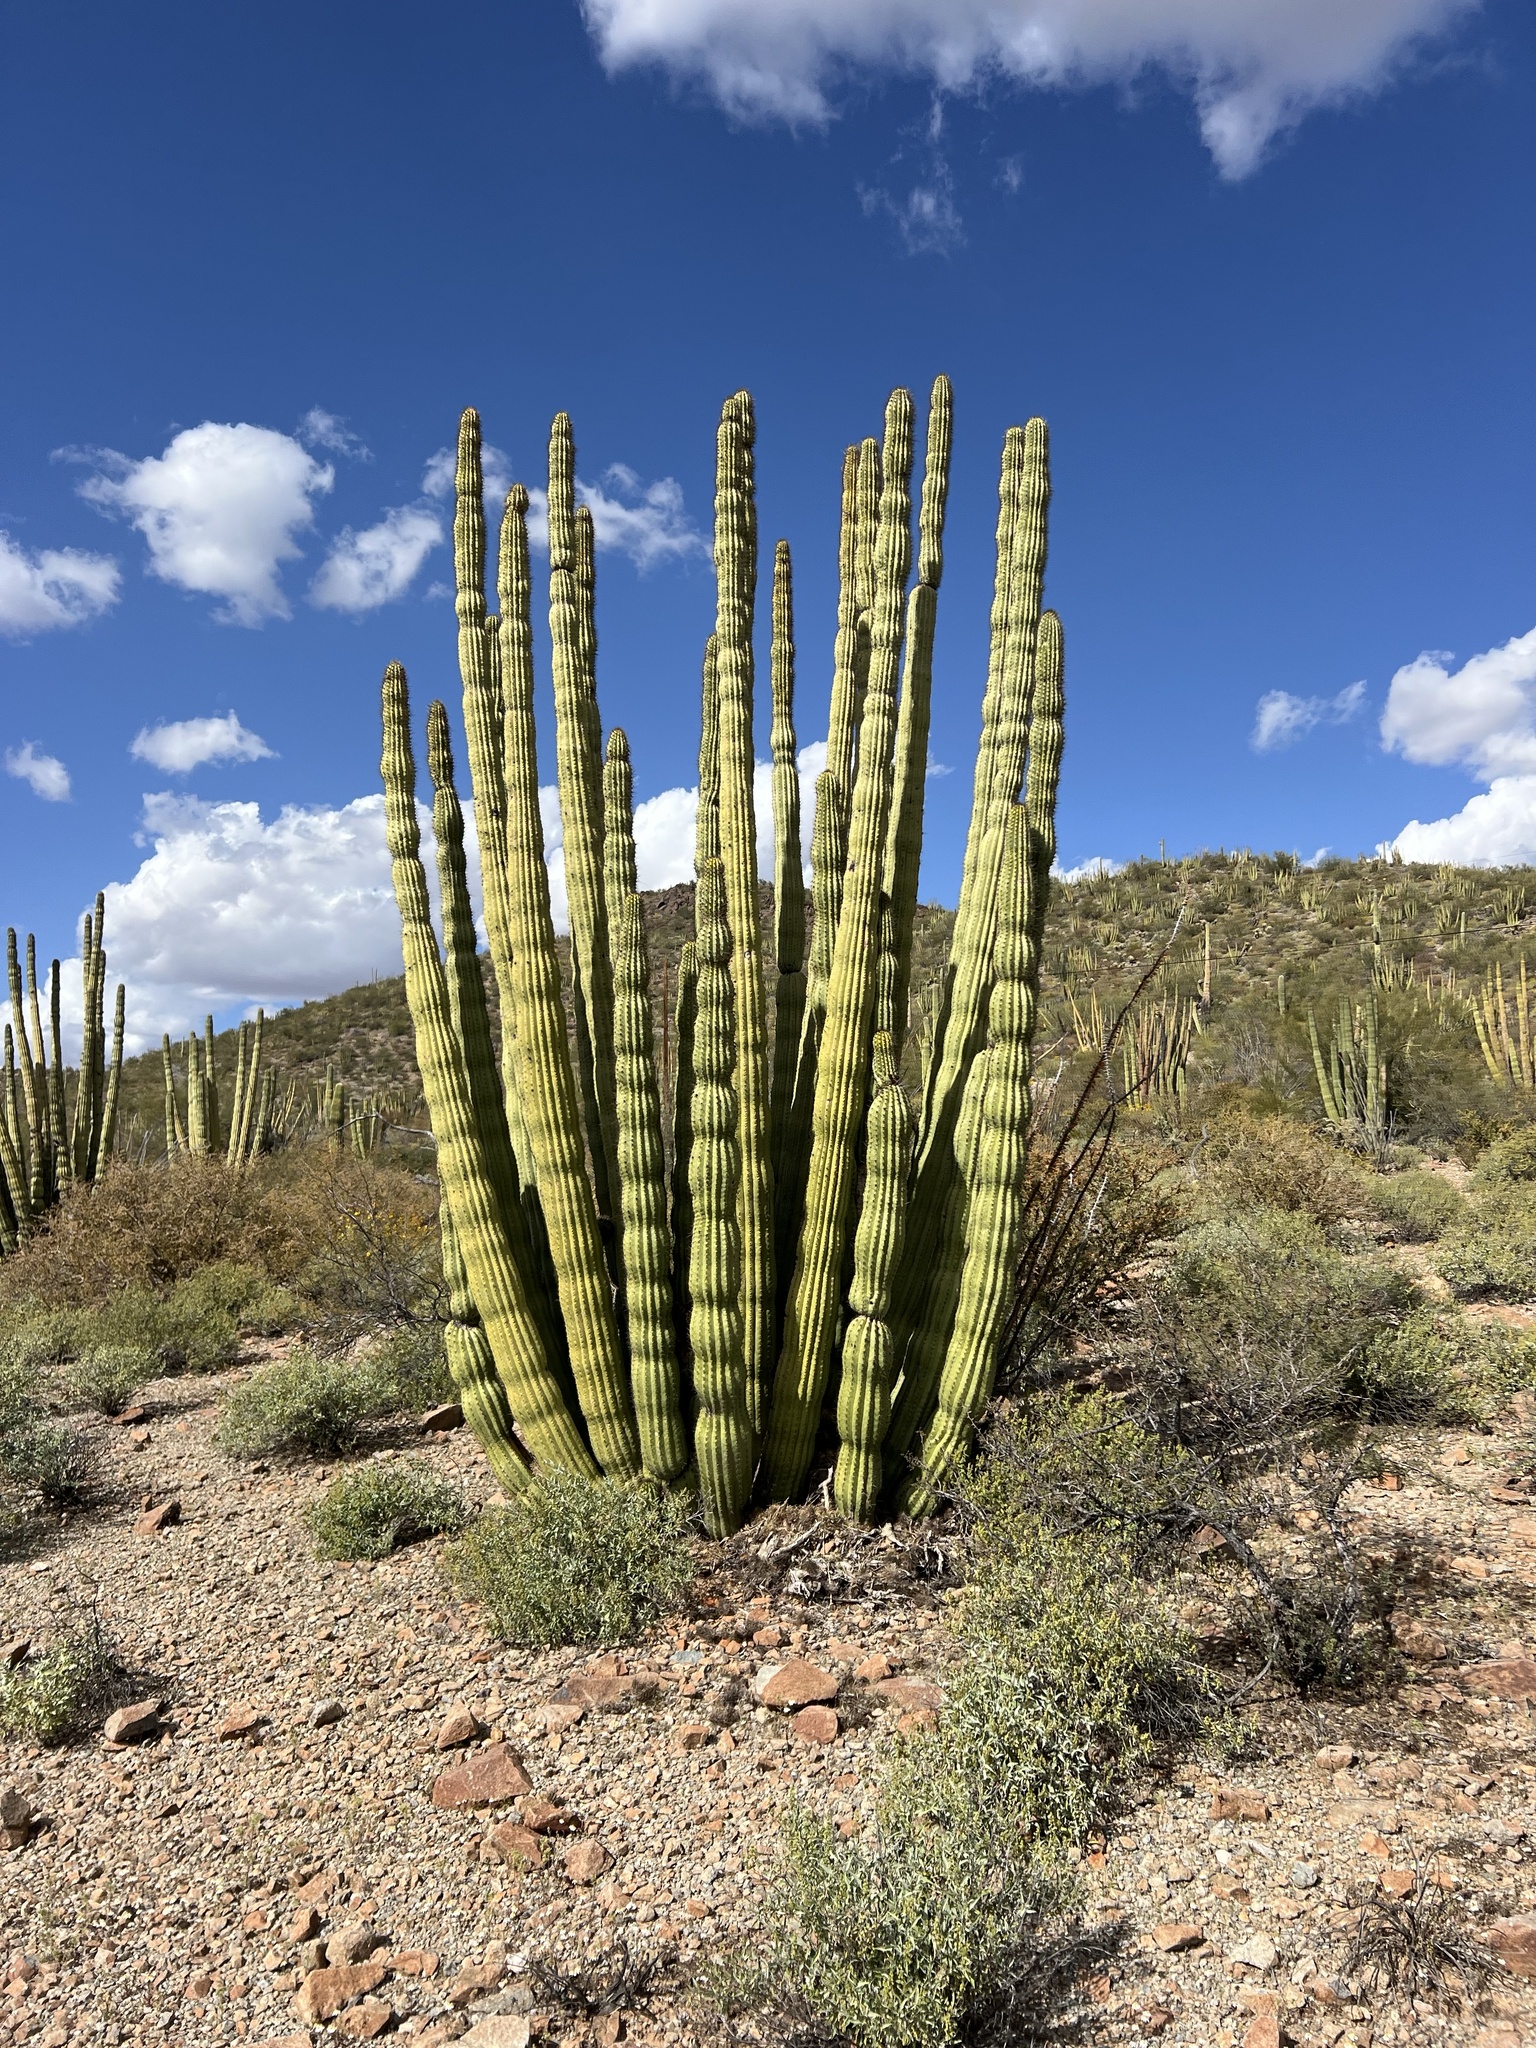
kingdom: Plantae
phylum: Tracheophyta
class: Magnoliopsida
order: Caryophyllales
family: Cactaceae
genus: Stenocereus
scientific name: Stenocereus thurberi
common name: Organ pipe cactus
